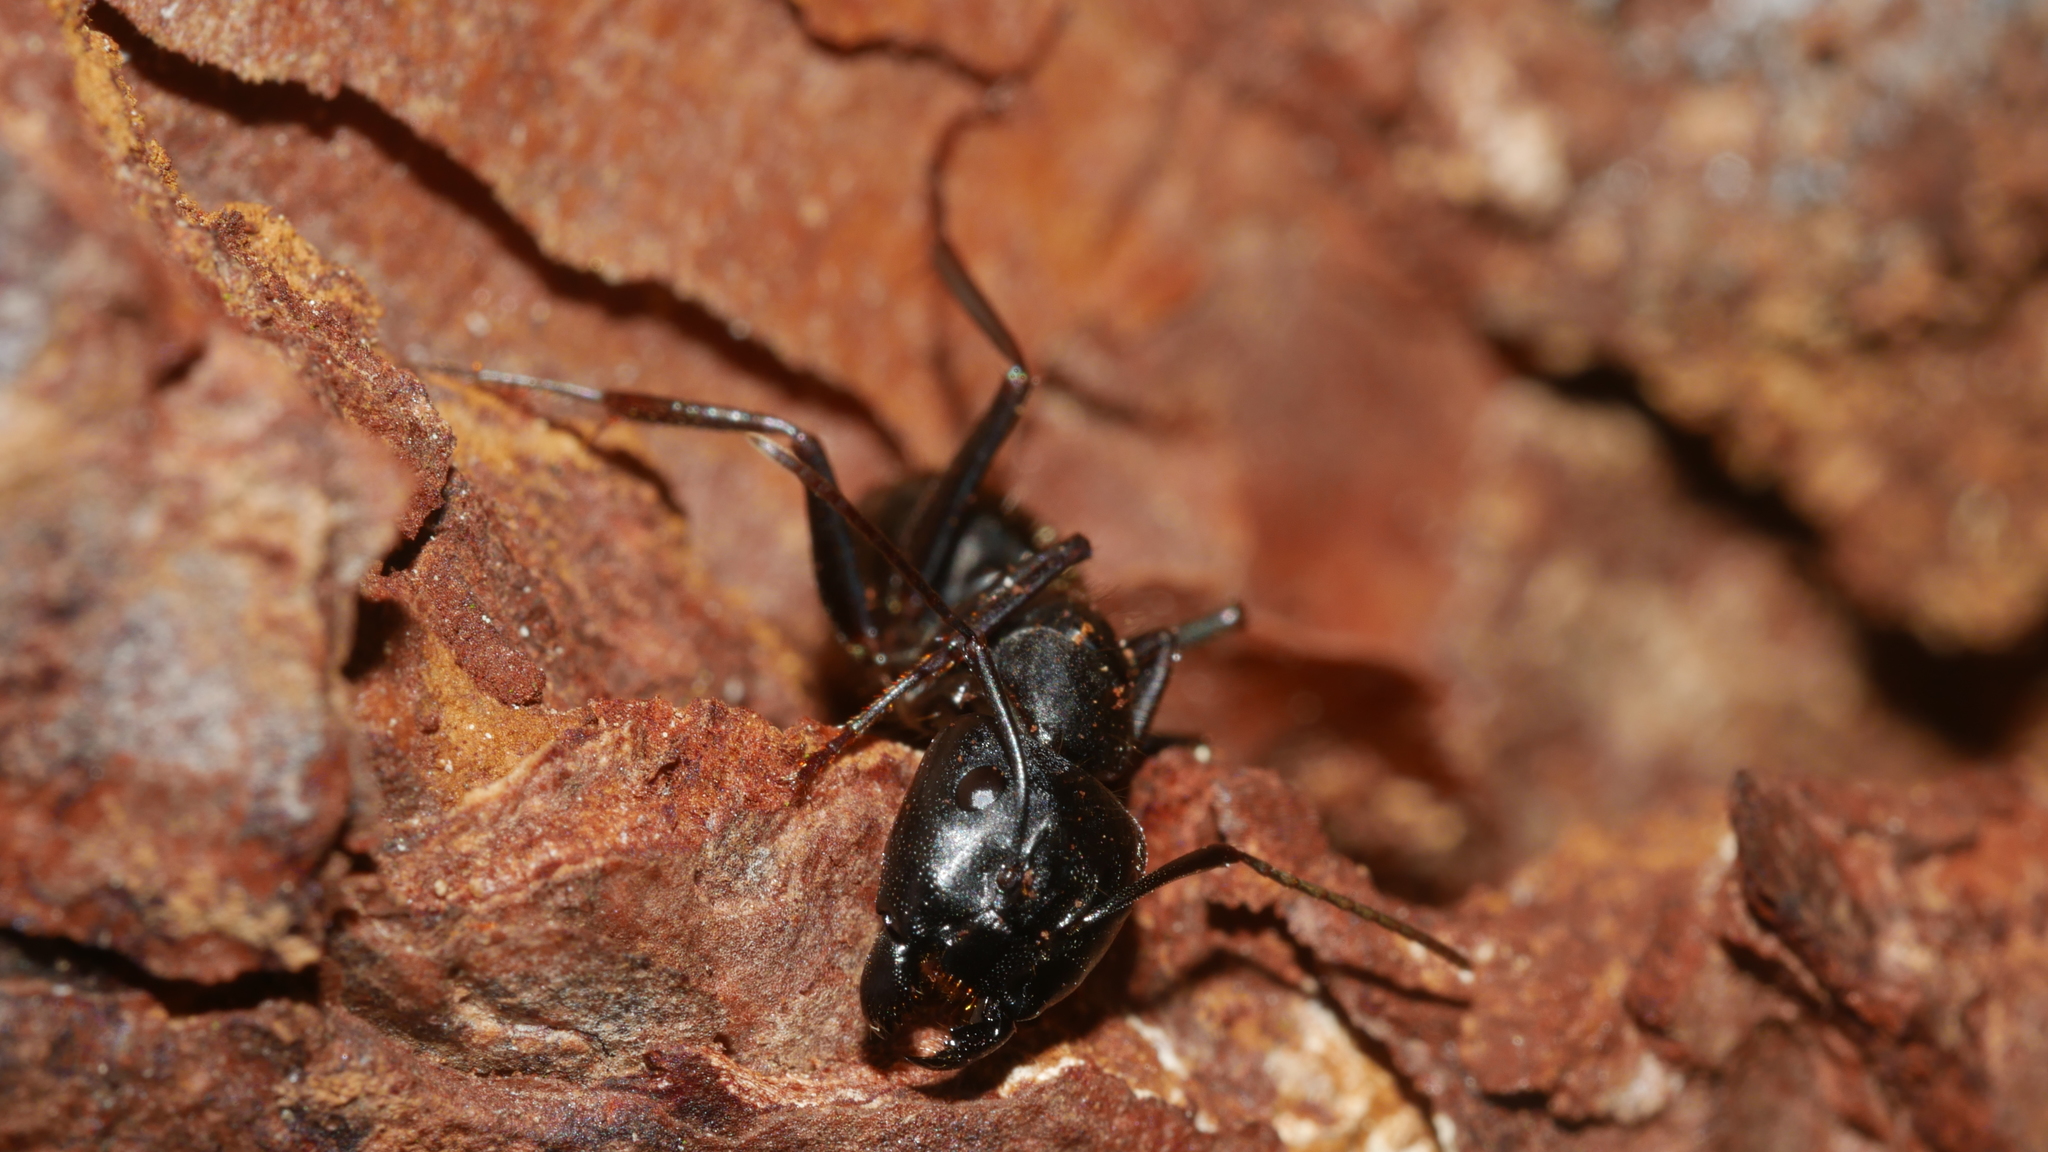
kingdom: Animalia
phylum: Arthropoda
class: Insecta
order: Hymenoptera
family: Formicidae
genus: Camponotus
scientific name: Camponotus pennsylvanicus
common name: Black carpenter ant
